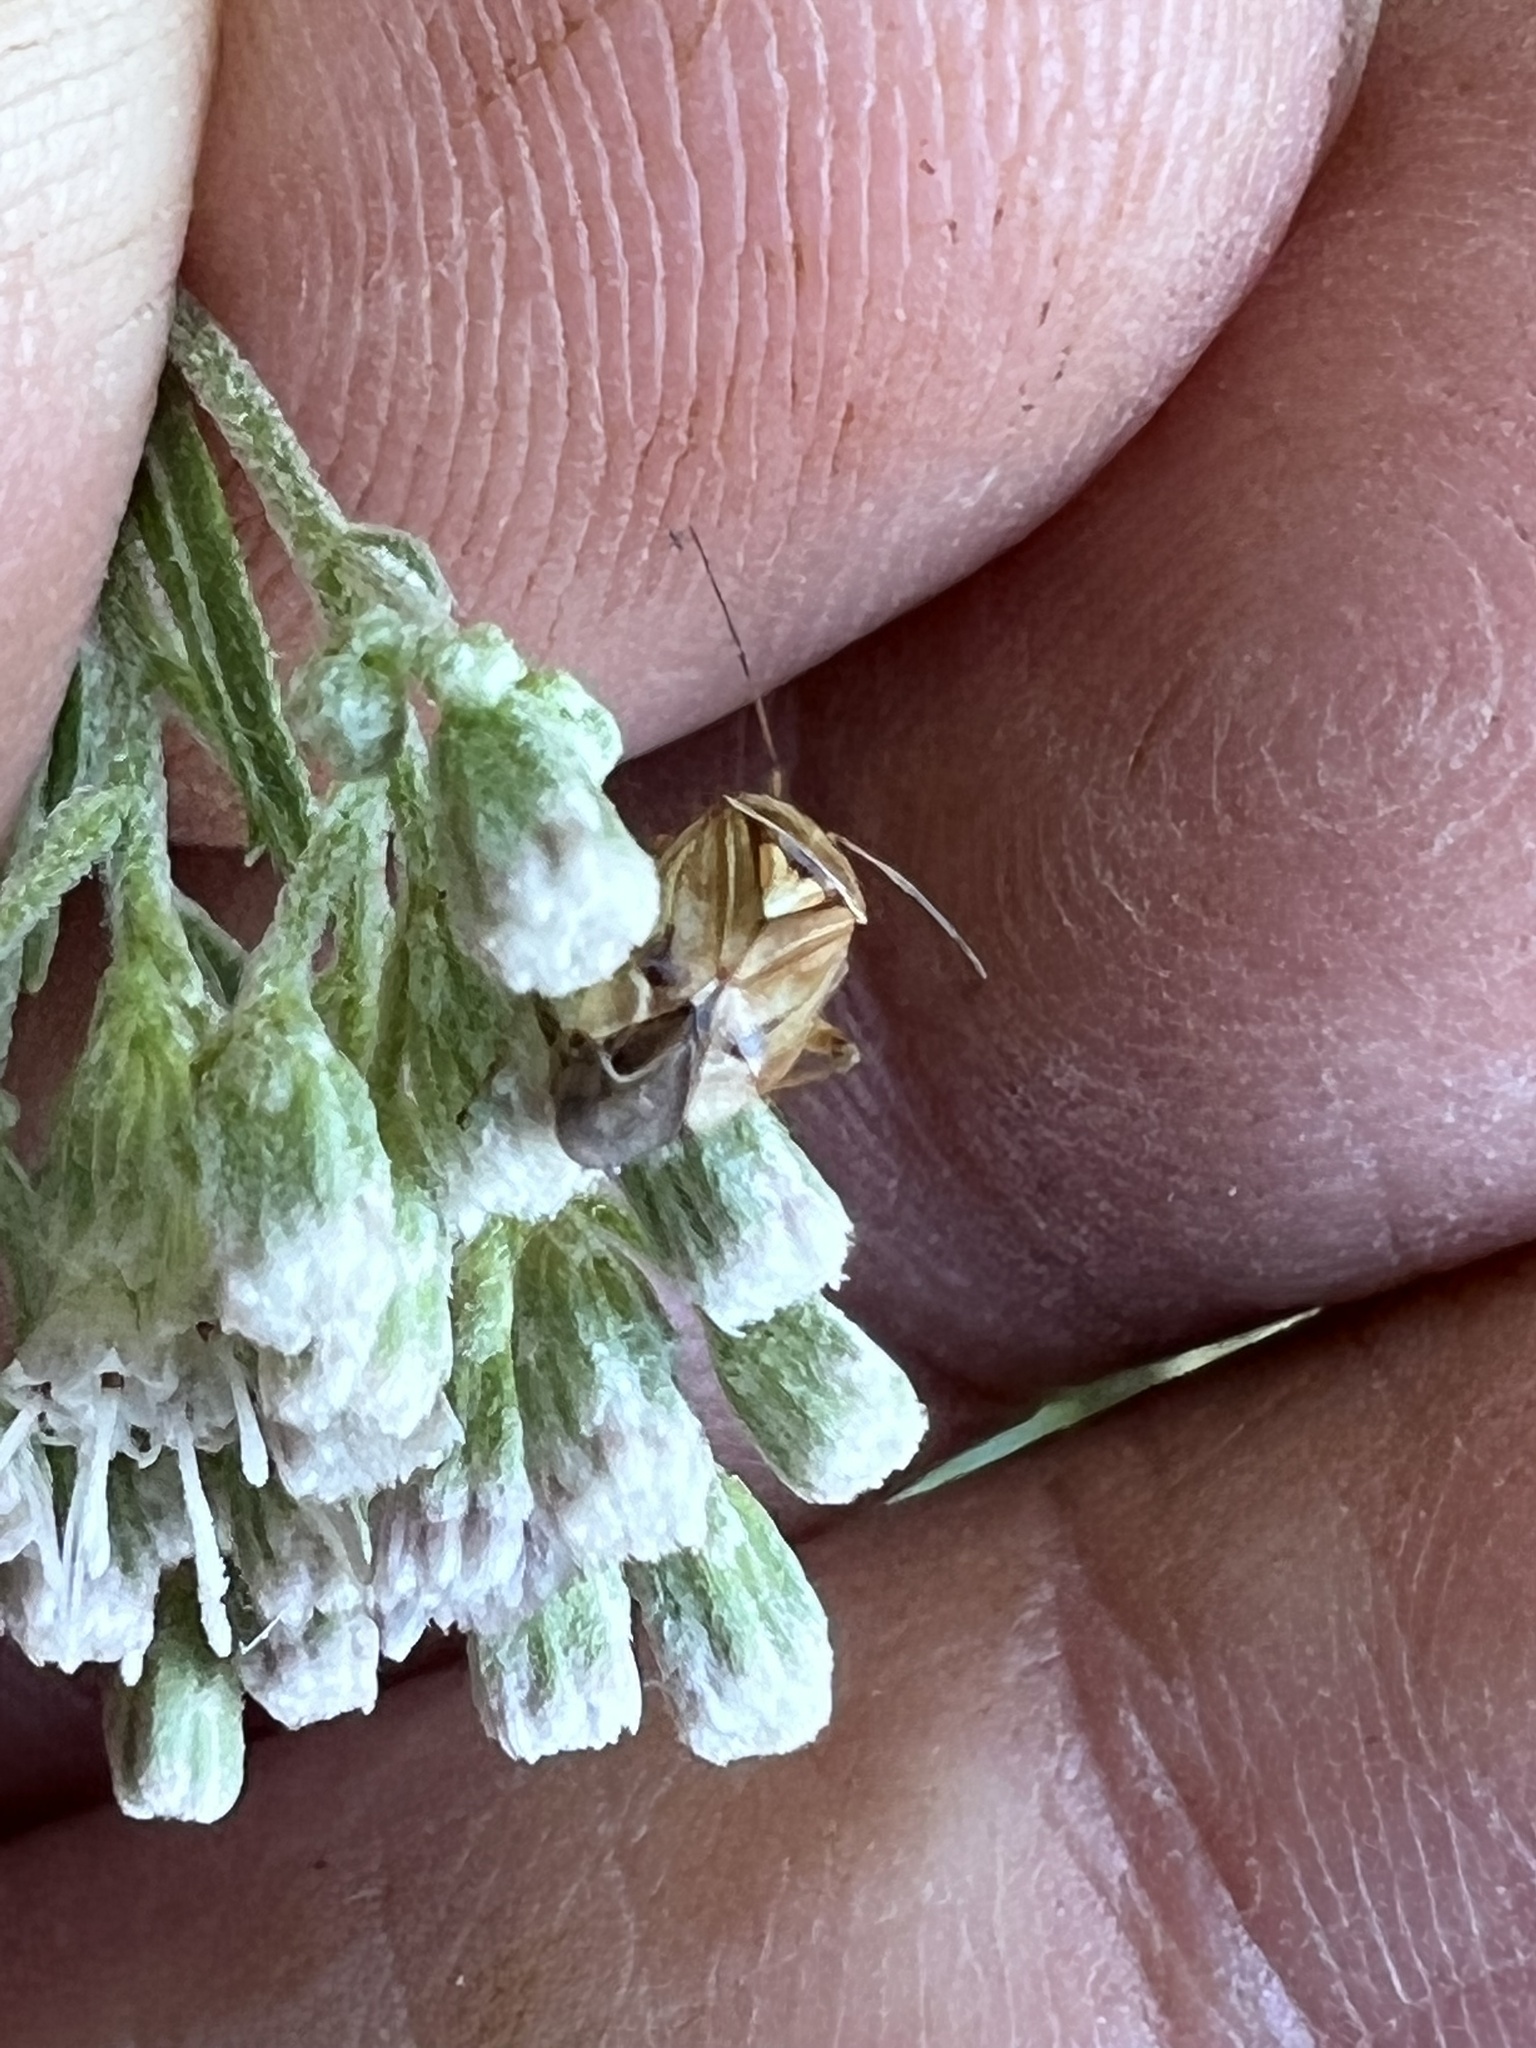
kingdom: Animalia
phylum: Arthropoda
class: Insecta
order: Hemiptera
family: Miridae
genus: Lygus
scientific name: Lygus lineolaris
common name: North american tarnished plant bug
